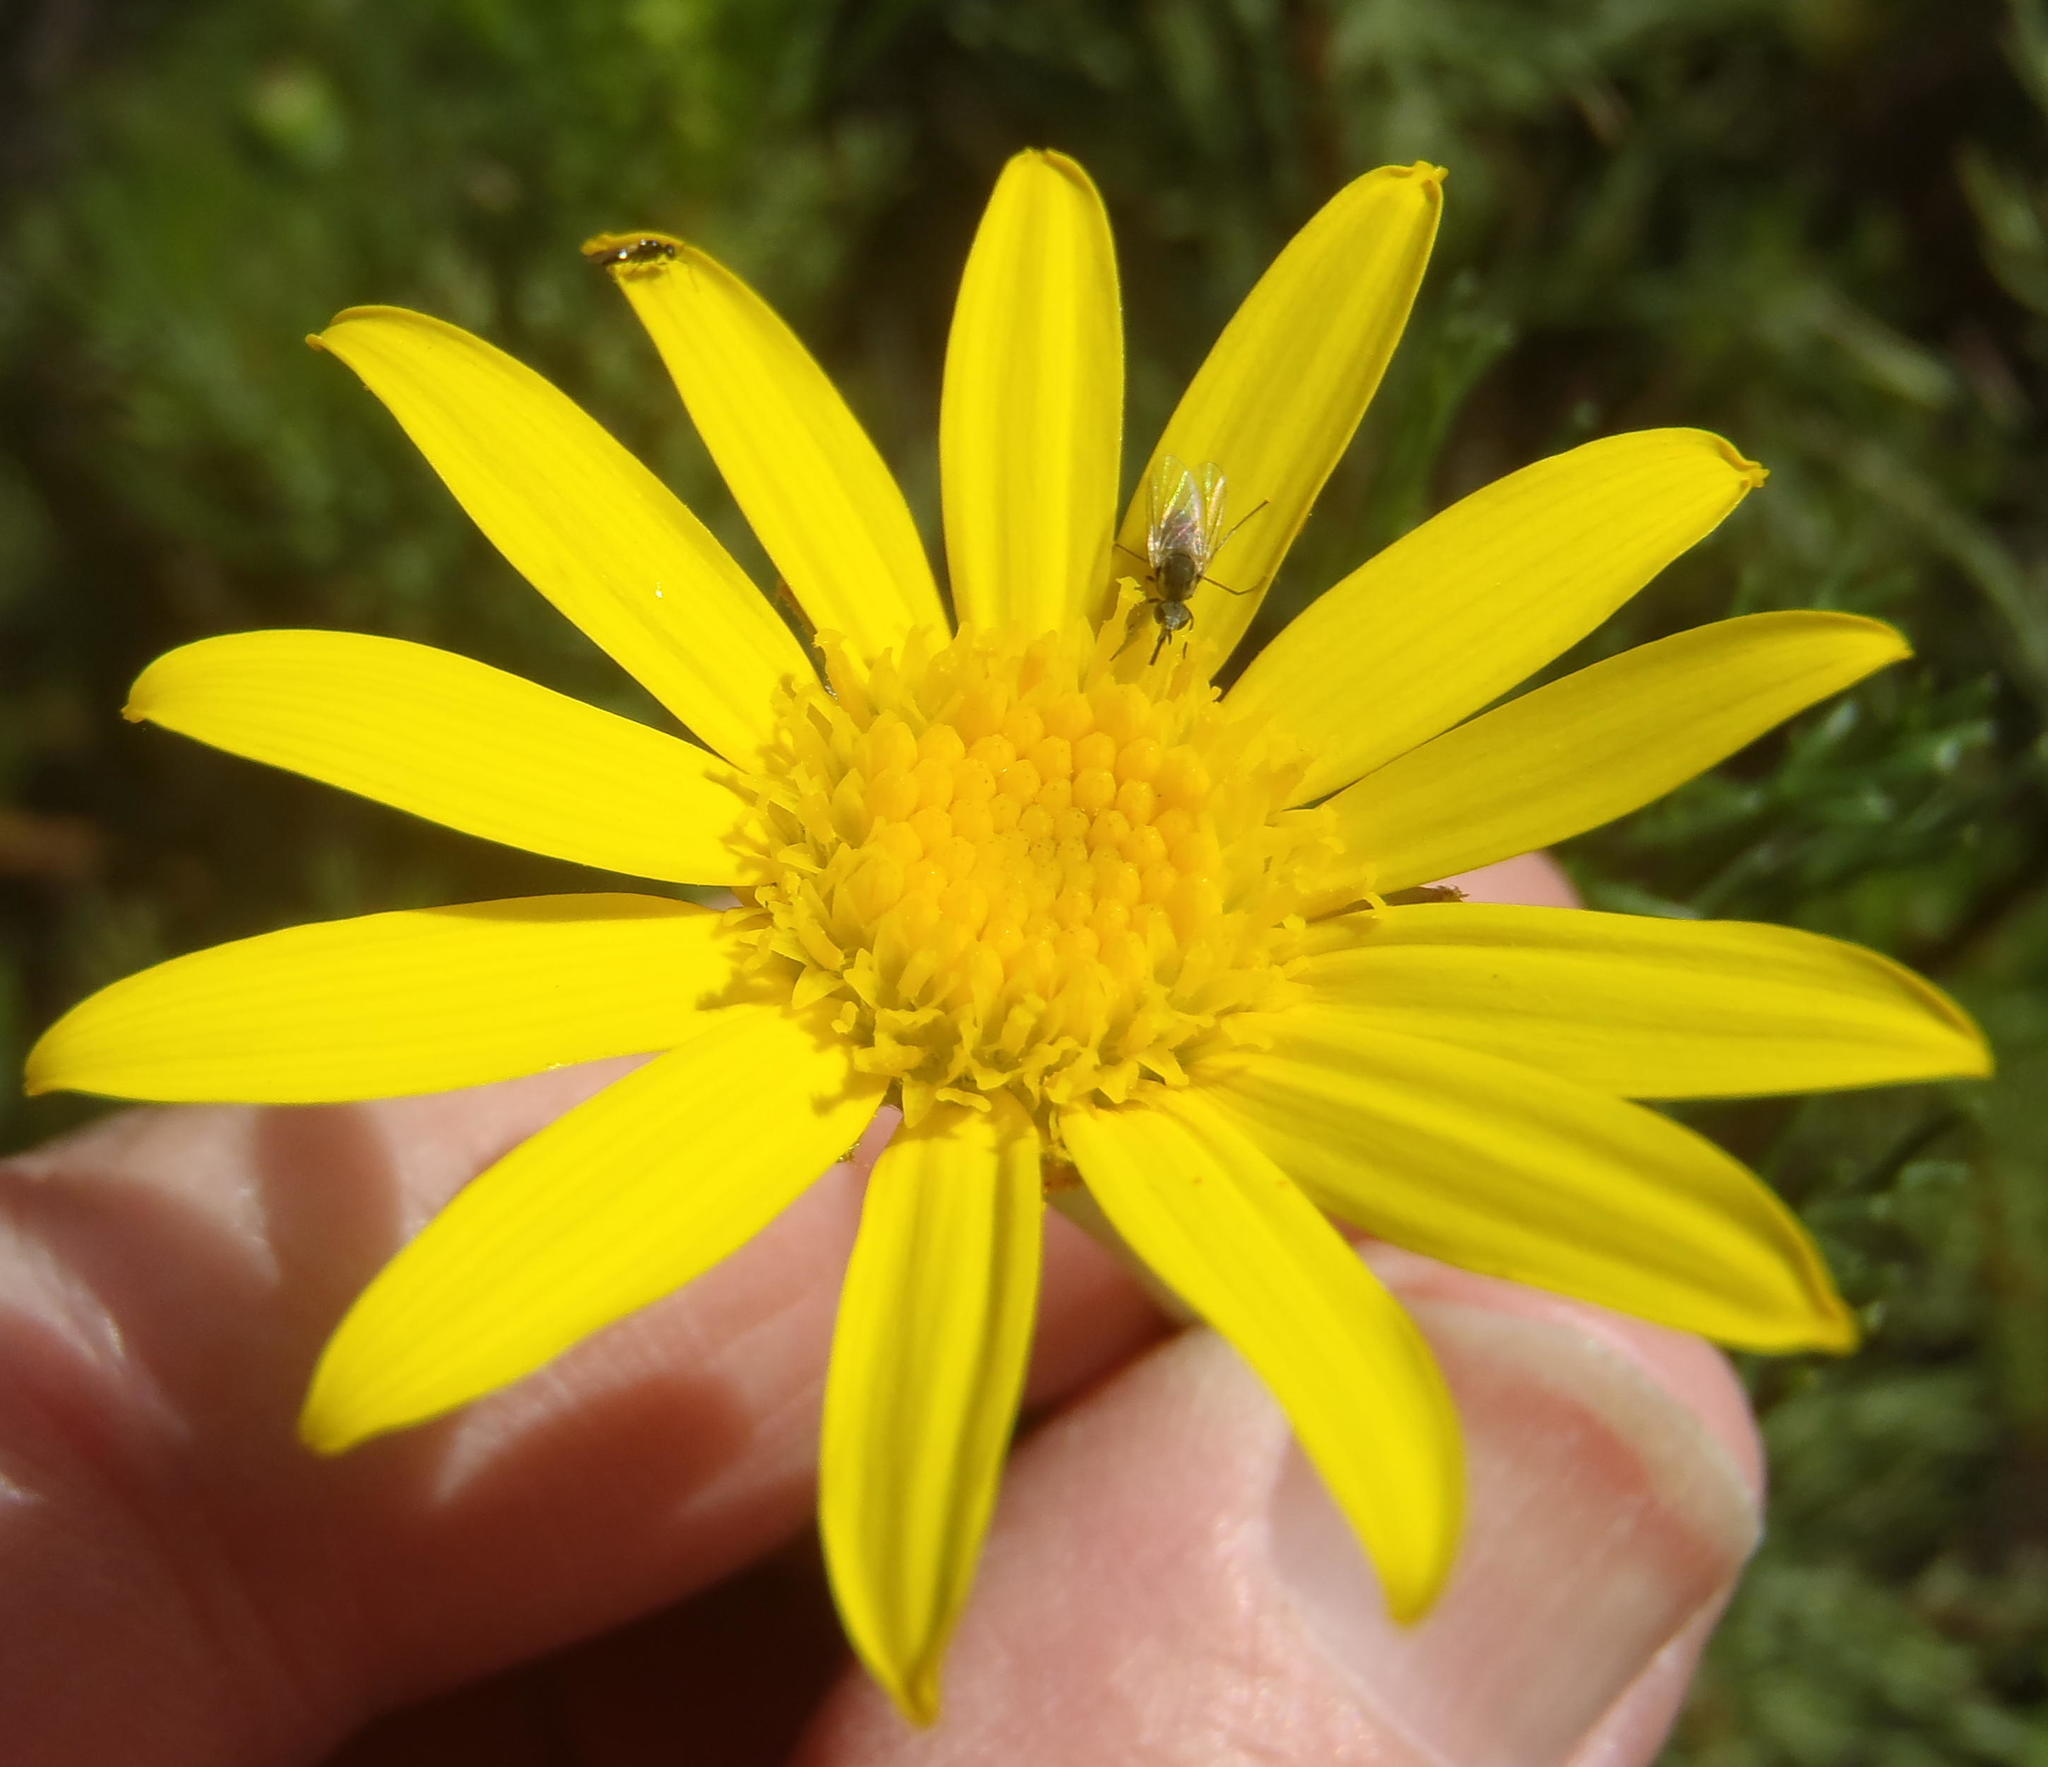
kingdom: Plantae
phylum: Tracheophyta
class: Magnoliopsida
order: Asterales
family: Asteraceae
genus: Euryops
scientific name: Euryops abrotanifolius
